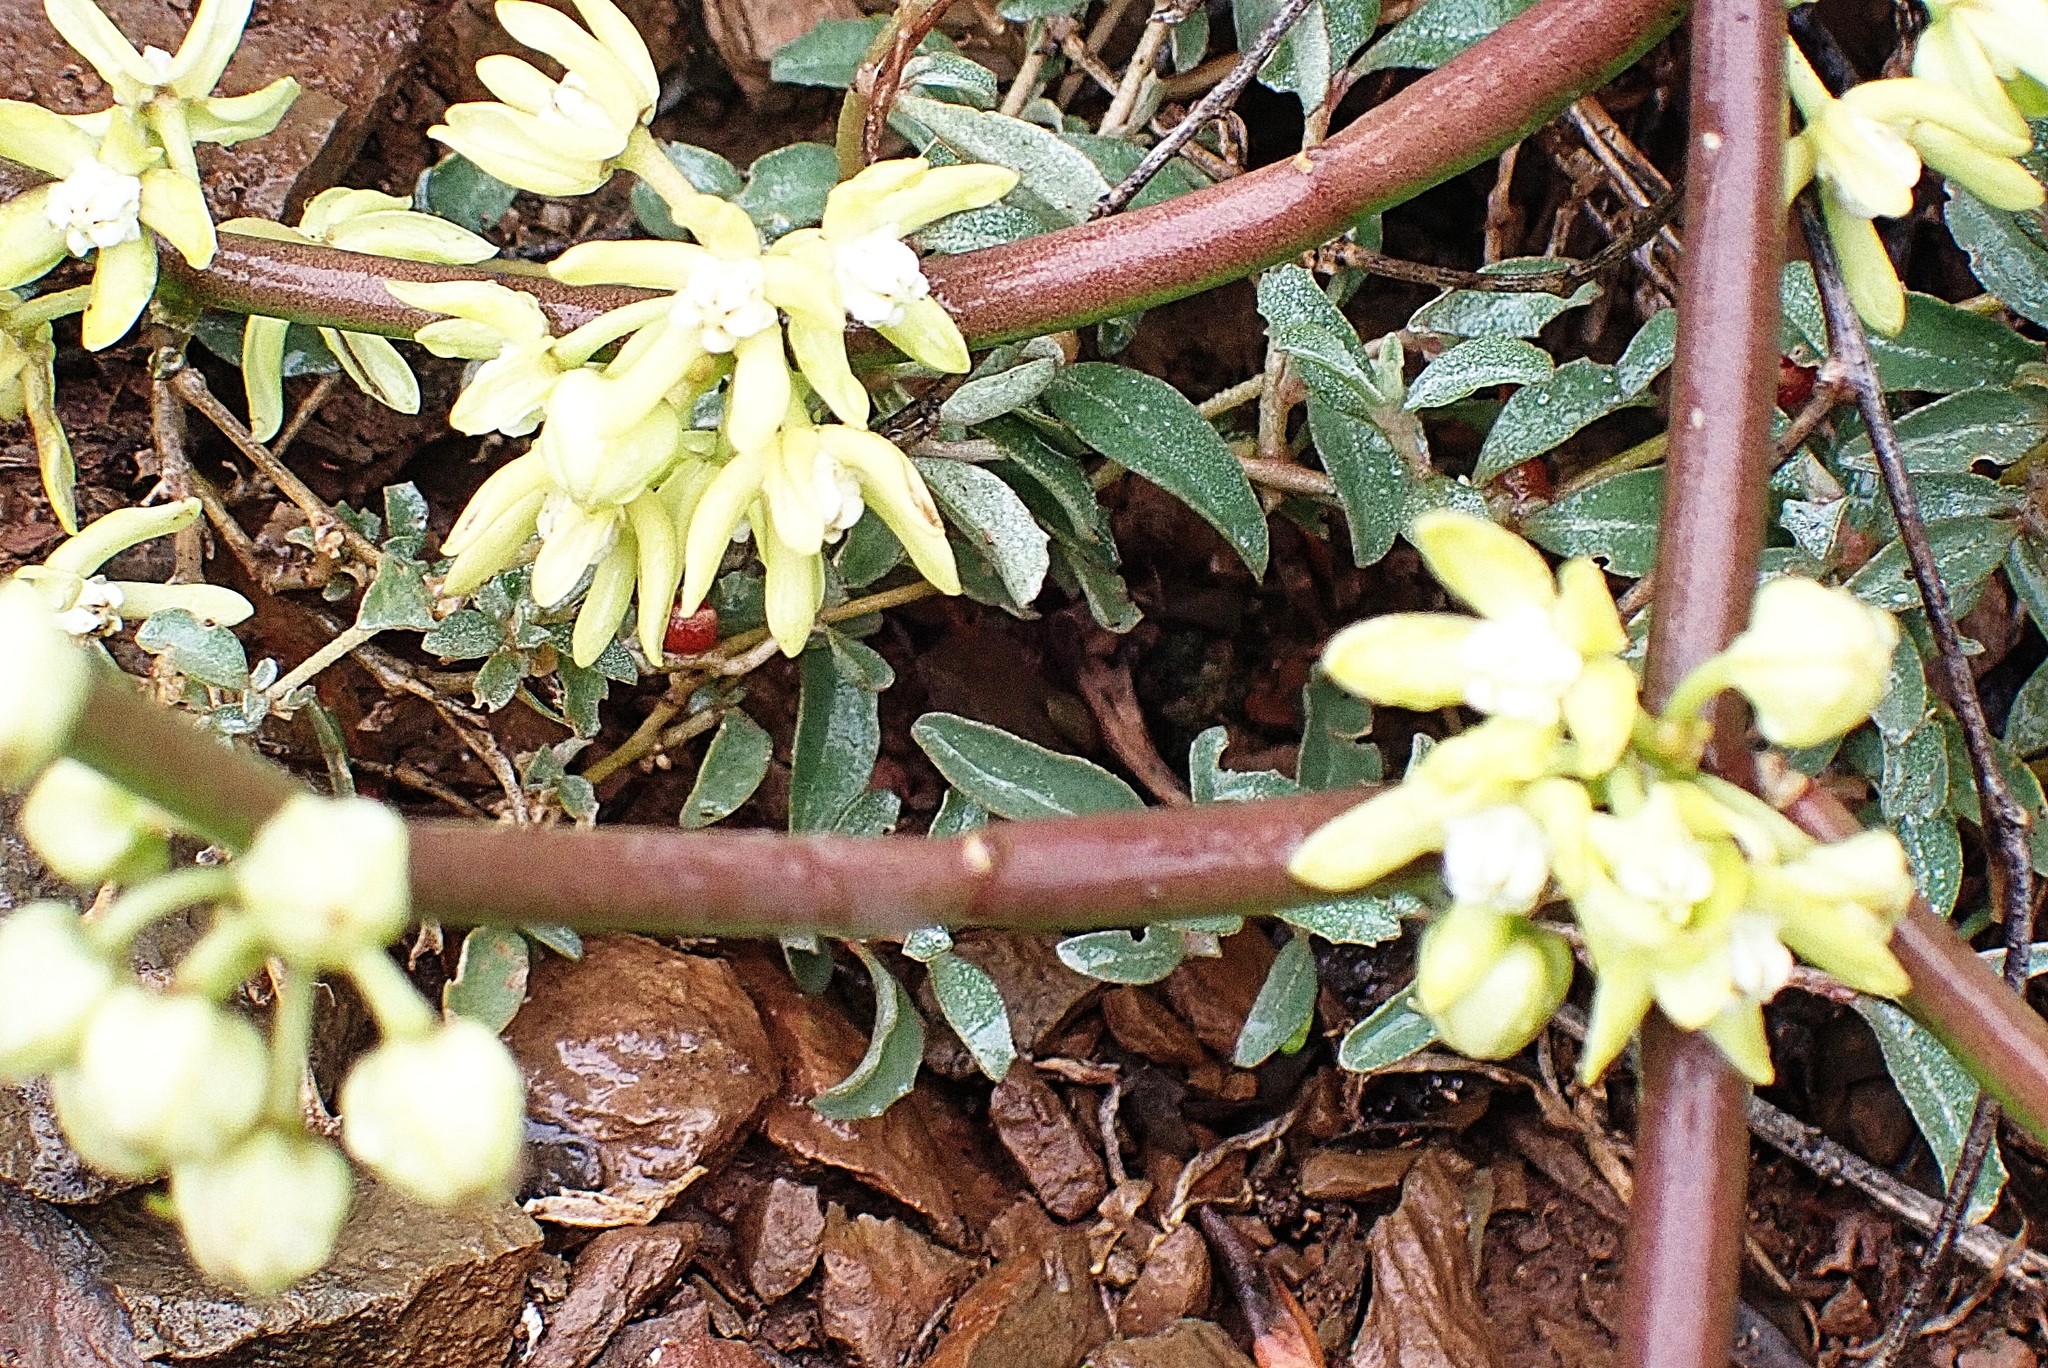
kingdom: Plantae
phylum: Tracheophyta
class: Magnoliopsida
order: Gentianales
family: Apocynaceae
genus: Cynanchum
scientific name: Cynanchum viminale
